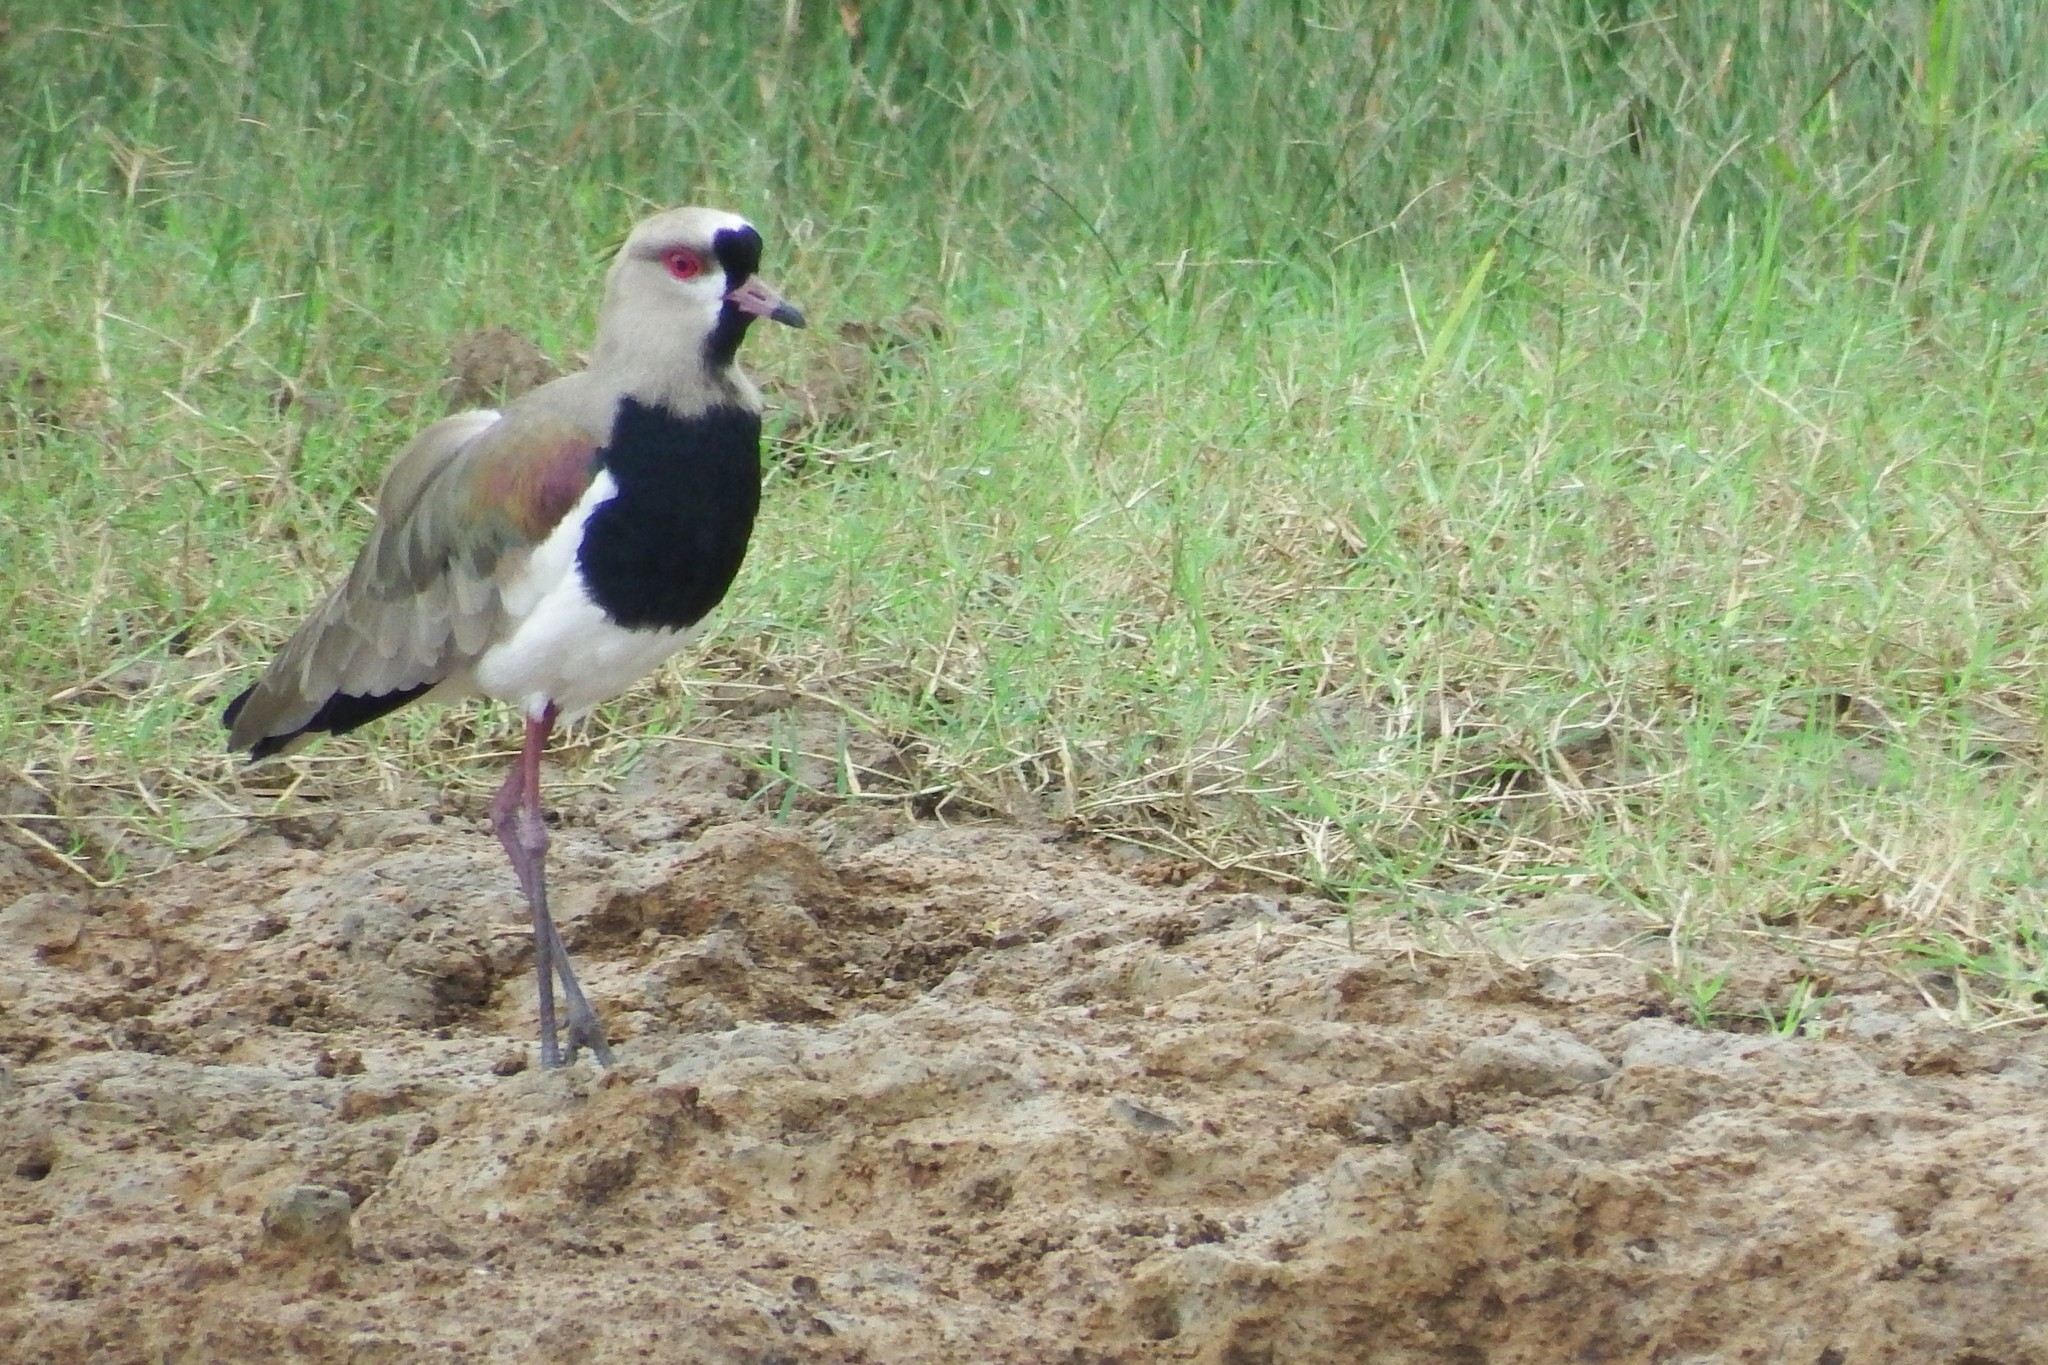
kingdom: Animalia
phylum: Chordata
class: Aves
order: Charadriiformes
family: Charadriidae
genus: Vanellus
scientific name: Vanellus chilensis
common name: Southern lapwing
